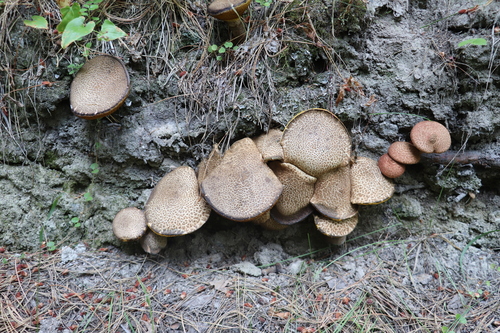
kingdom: Fungi
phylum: Basidiomycota
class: Agaricomycetes
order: Boletales
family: Suillaceae
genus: Suillus
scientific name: Suillus spraguei
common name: Painted suillus
